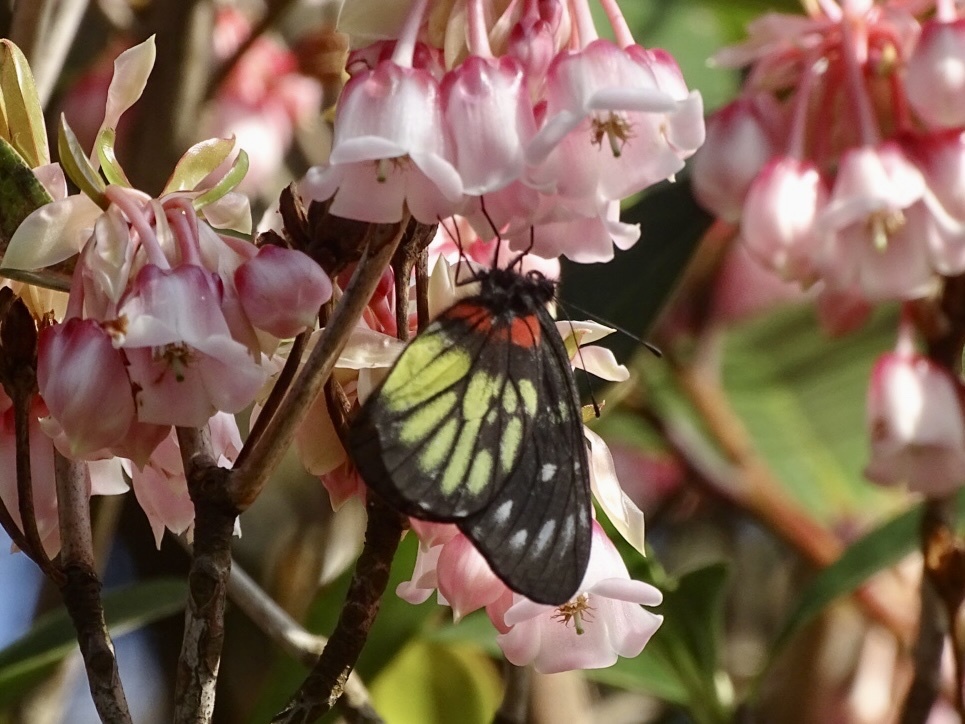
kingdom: Animalia
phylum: Arthropoda
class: Insecta
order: Lepidoptera
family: Pieridae
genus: Delias
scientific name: Delias pasithoe
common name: Red-base jezebel
